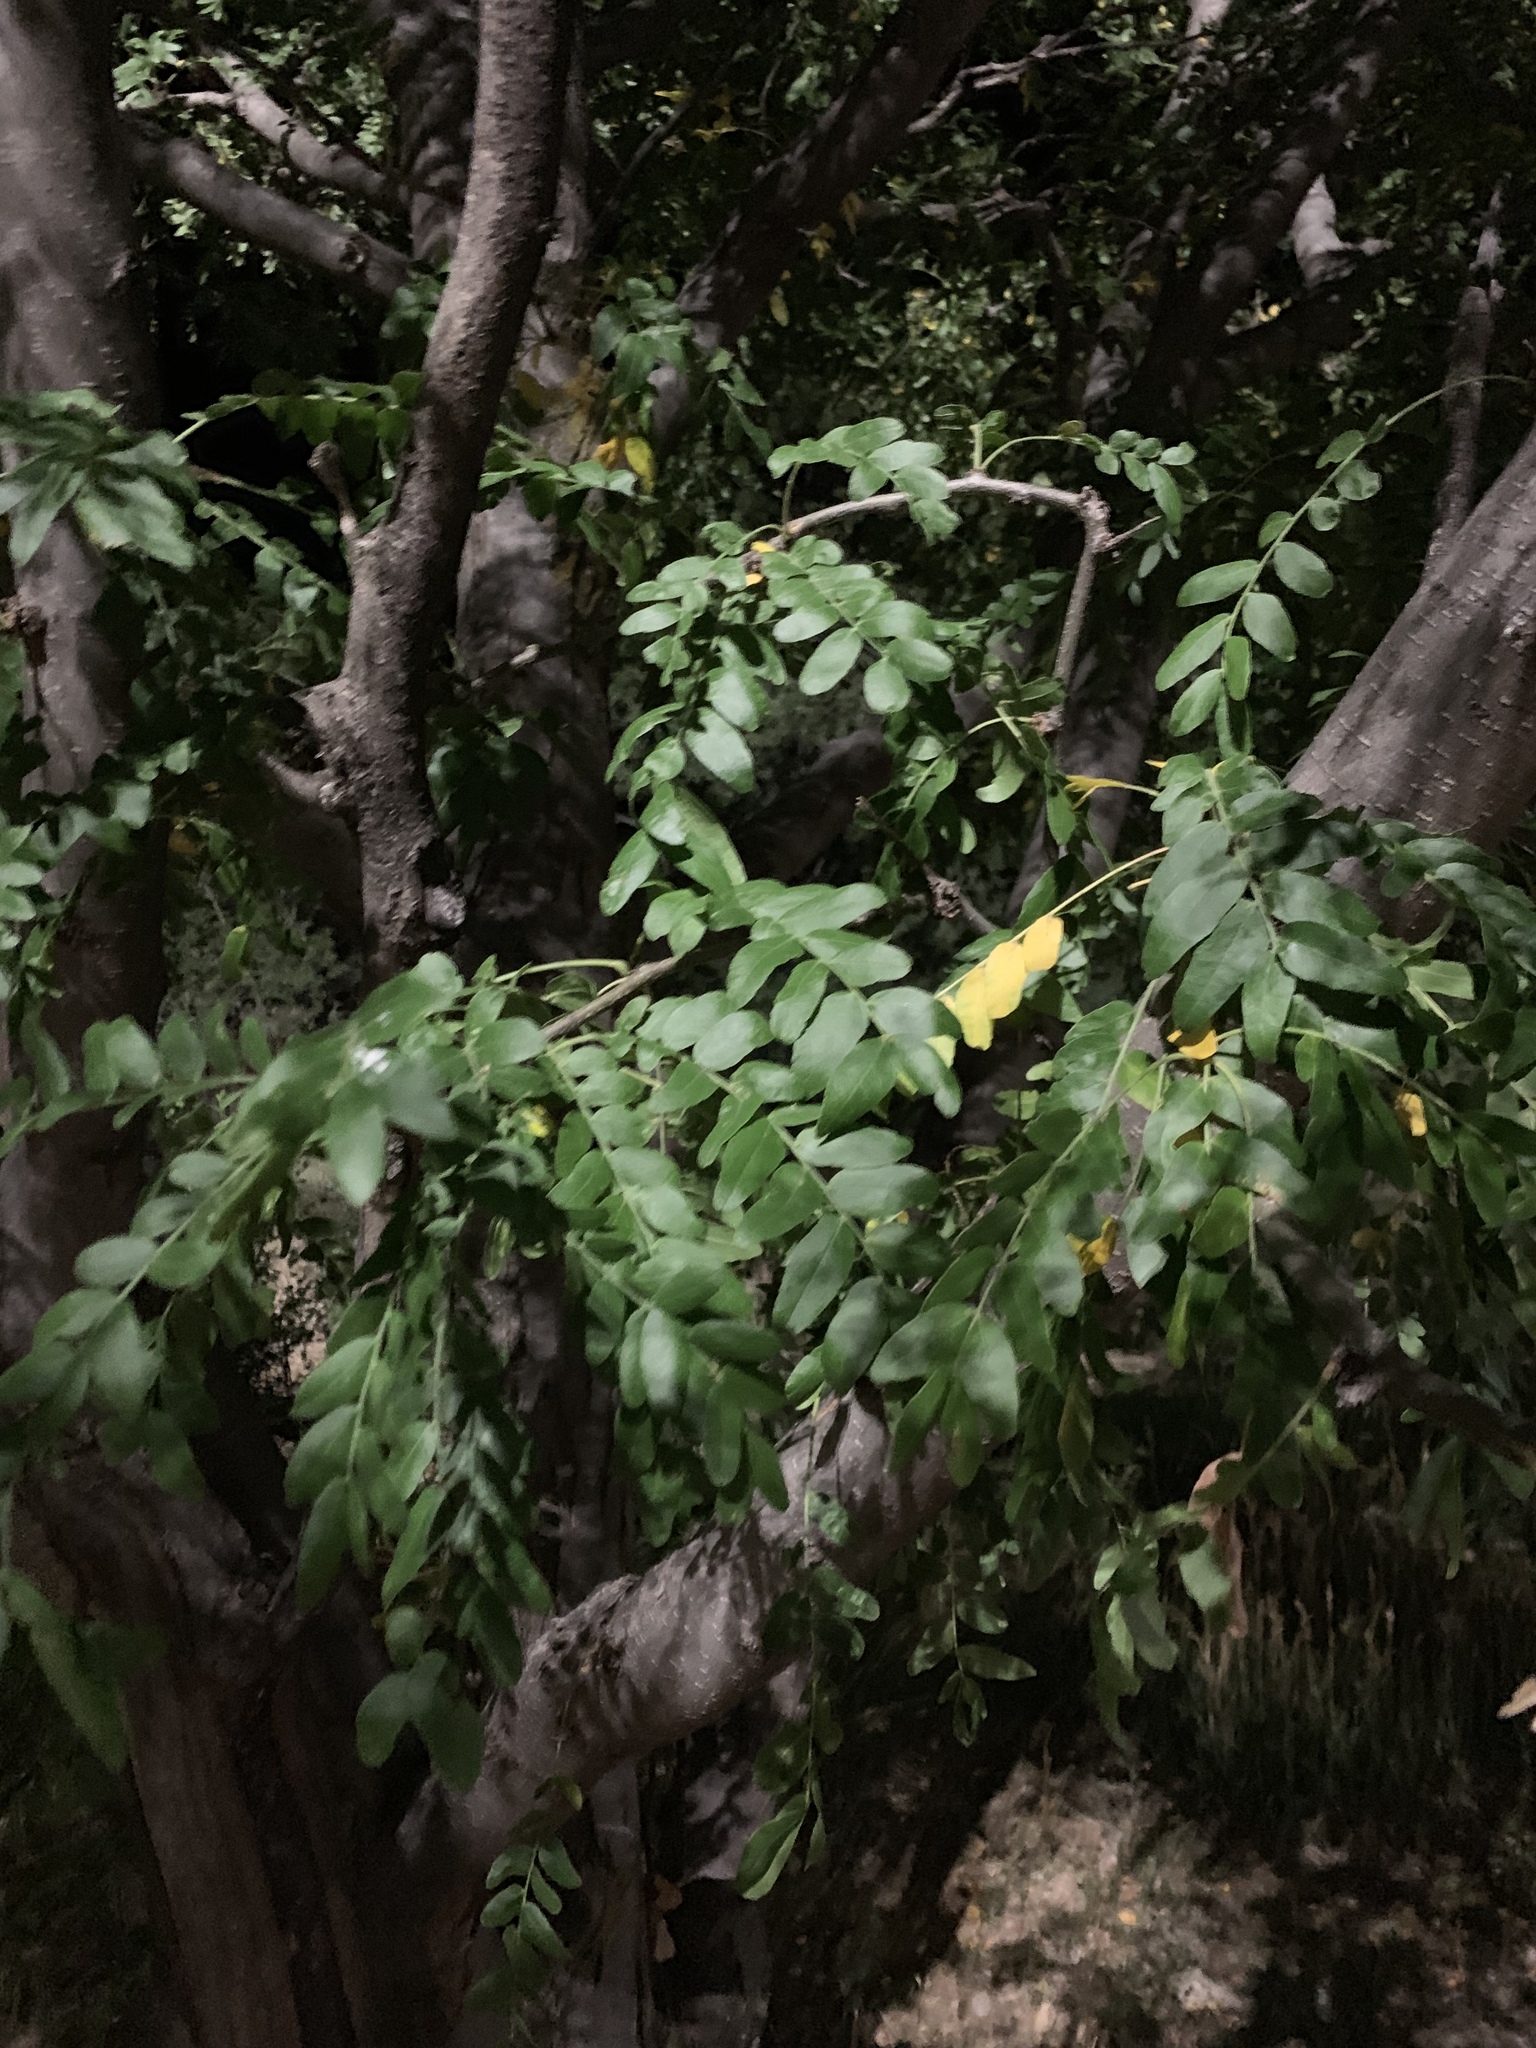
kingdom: Plantae
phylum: Tracheophyta
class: Magnoliopsida
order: Fabales
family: Fabaceae
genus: Gleditsia
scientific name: Gleditsia triacanthos
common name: Common honeylocust
